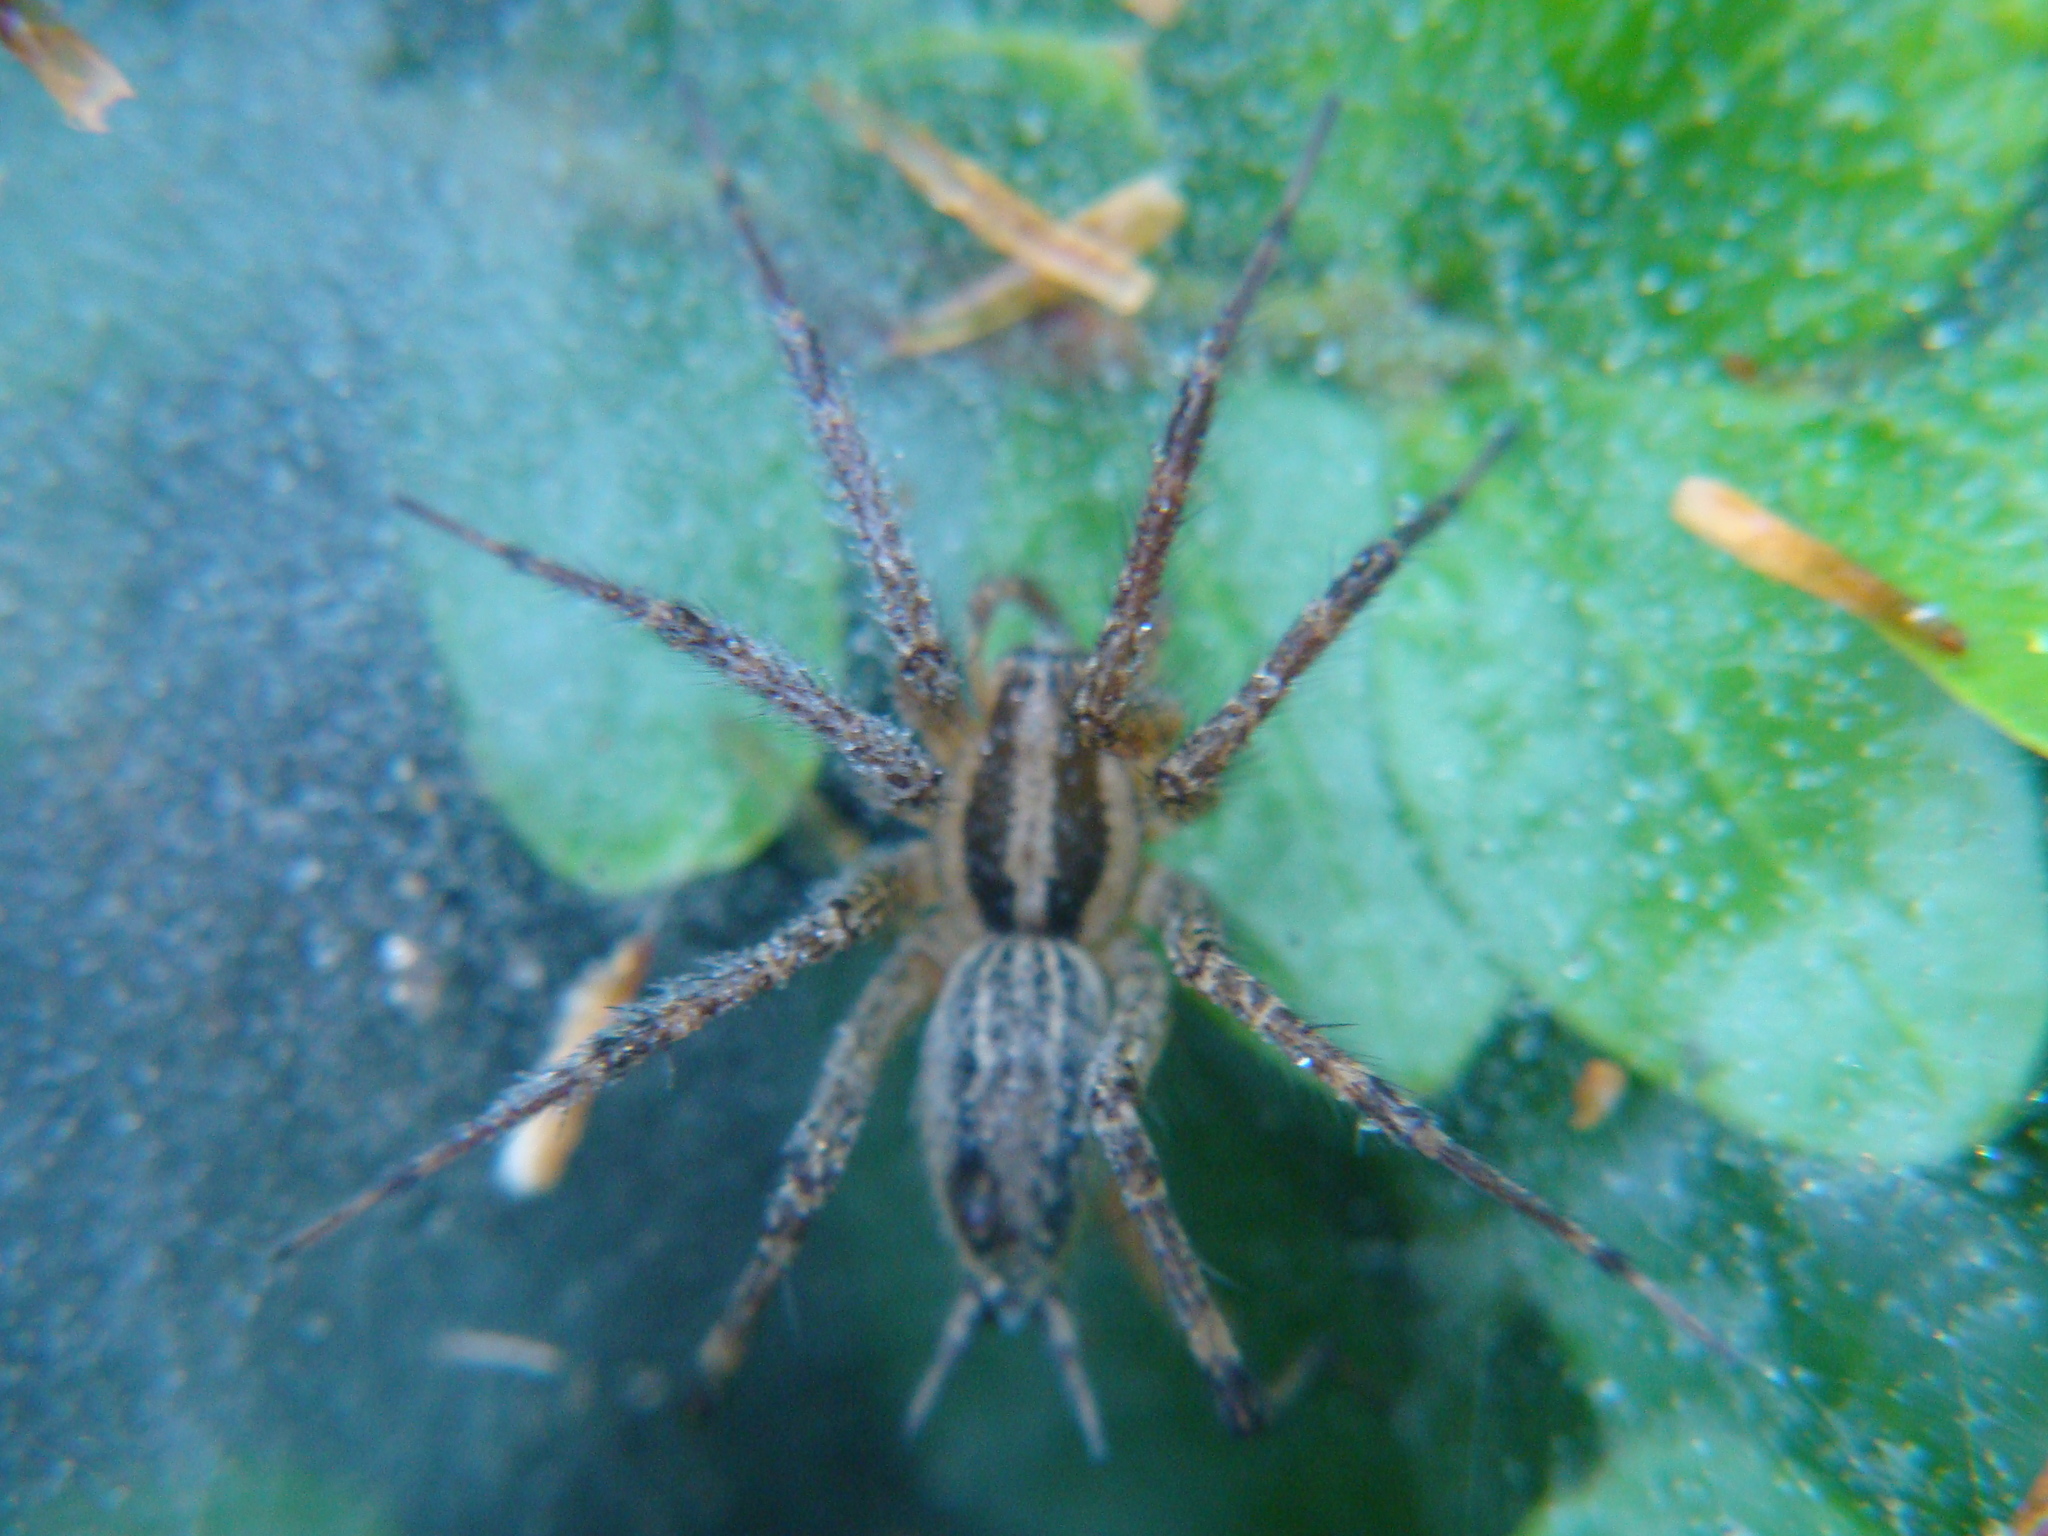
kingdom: Animalia
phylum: Arthropoda
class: Arachnida
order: Araneae
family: Agelenidae
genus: Agelenopsis
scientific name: Agelenopsis
